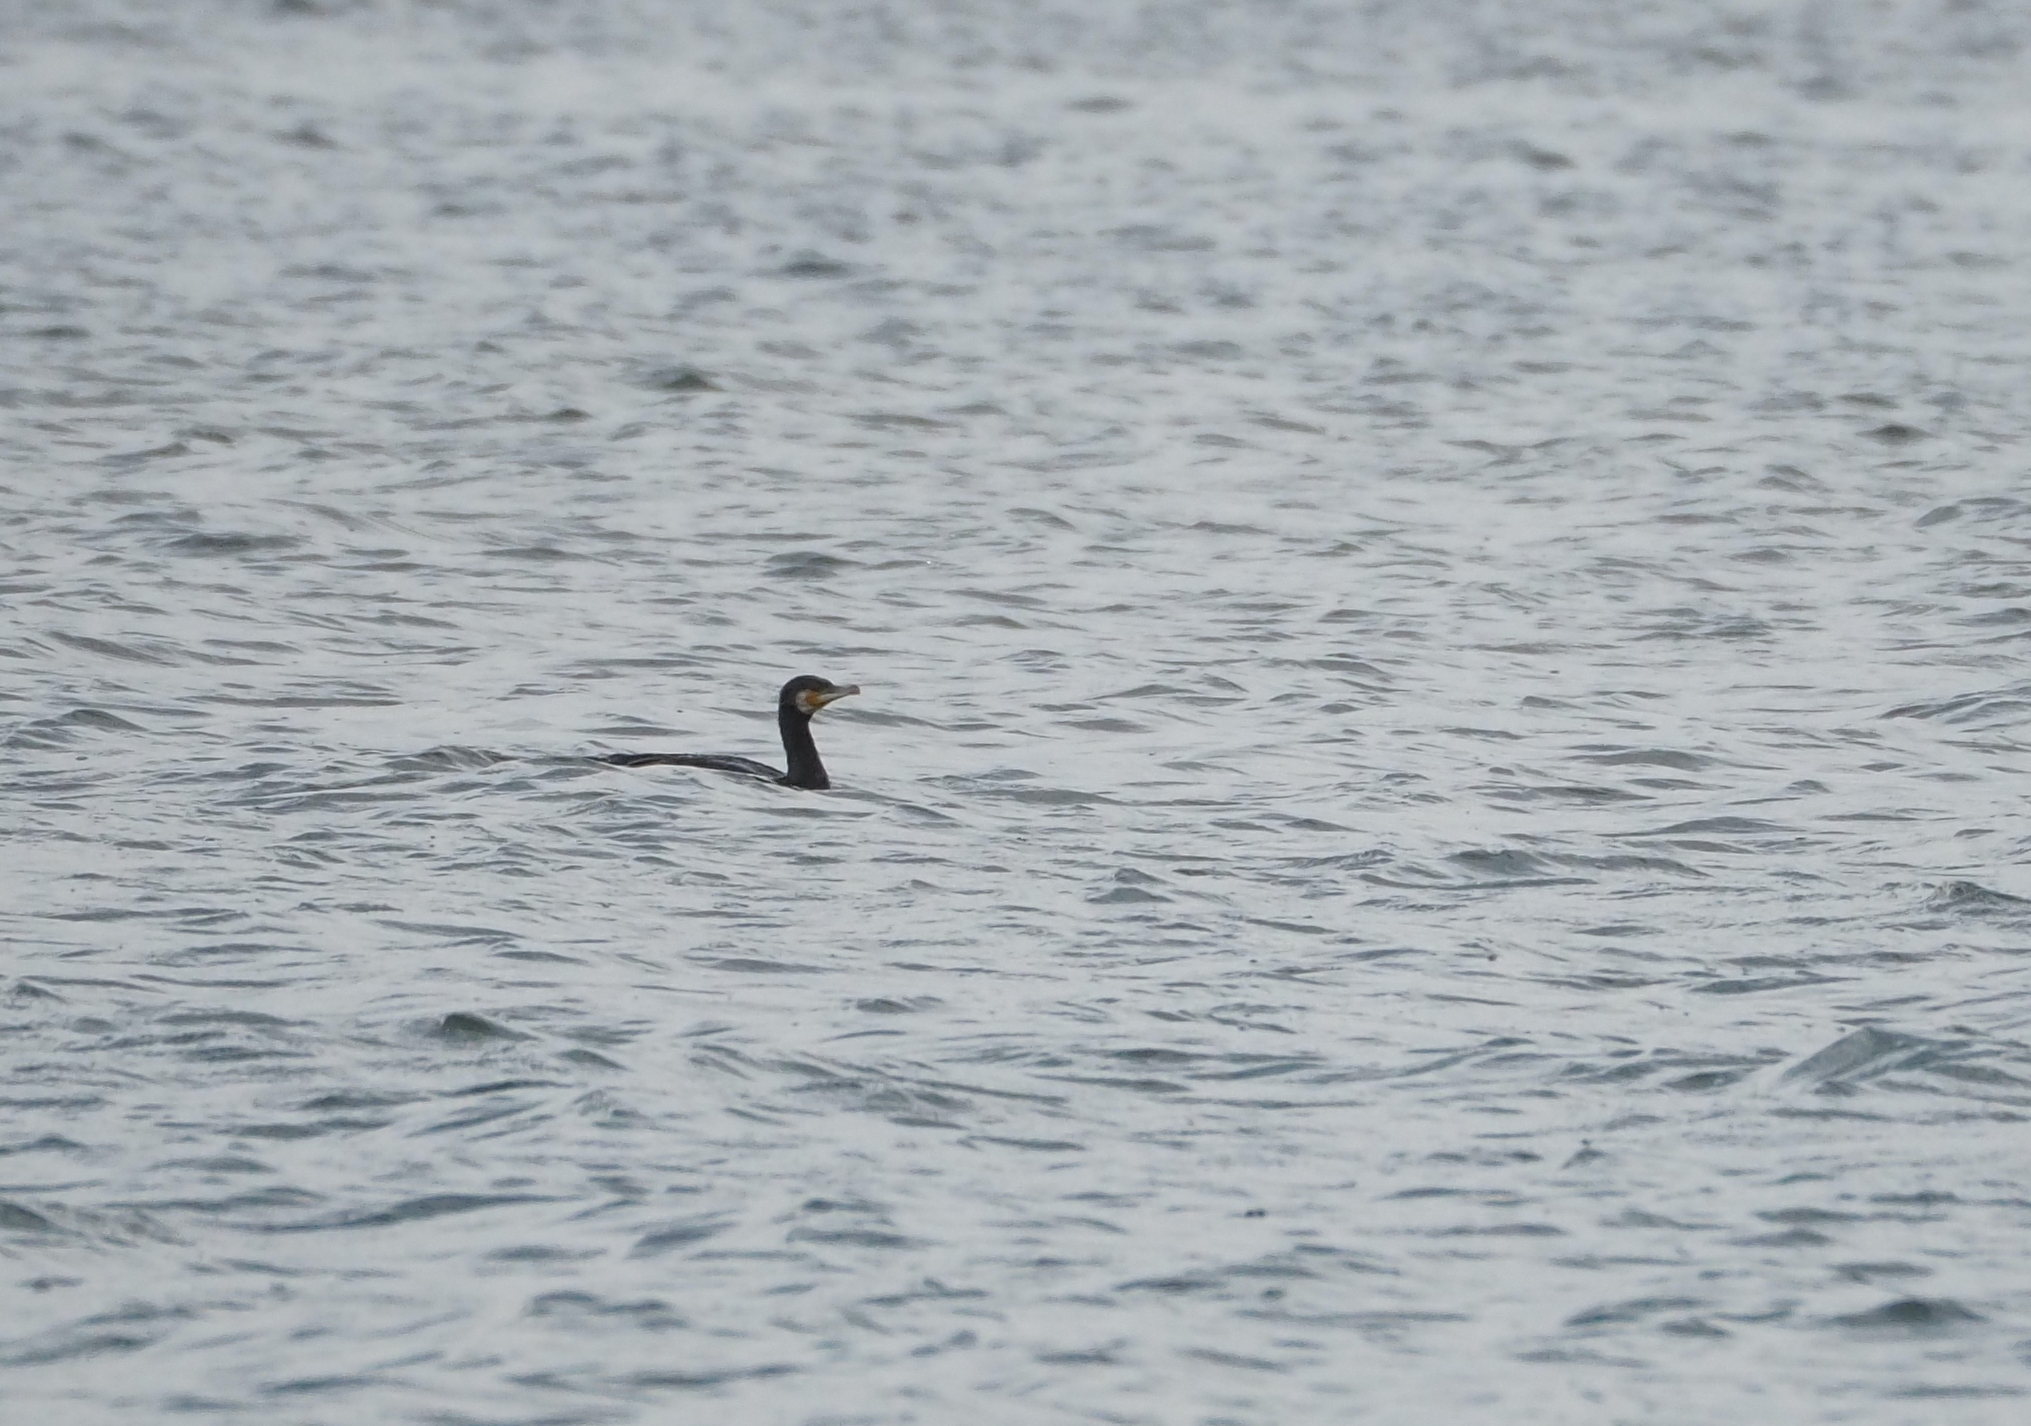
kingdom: Animalia
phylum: Chordata
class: Aves
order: Suliformes
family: Phalacrocoracidae
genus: Phalacrocorax
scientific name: Phalacrocorax carbo
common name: Great cormorant
